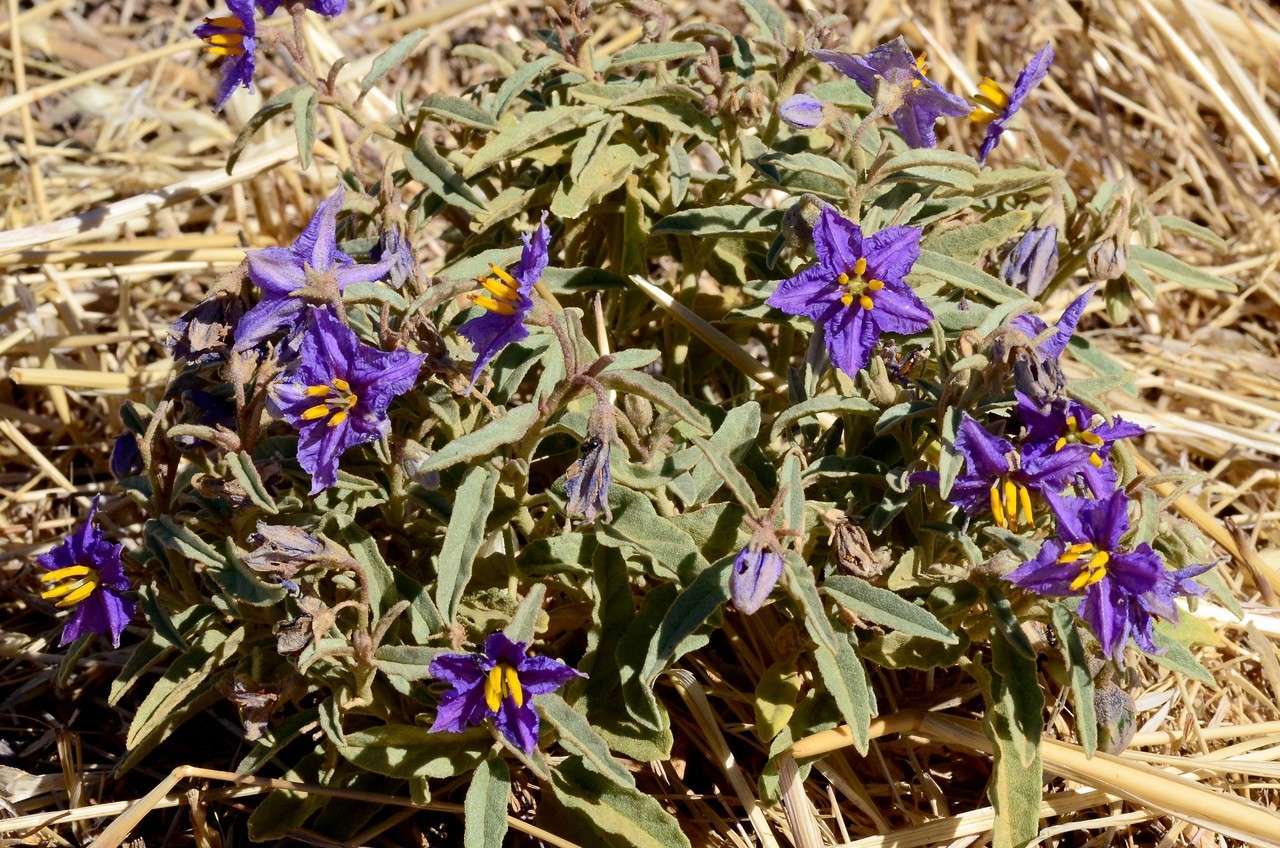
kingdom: Plantae
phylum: Tracheophyta
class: Magnoliopsida
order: Solanales
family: Solanaceae
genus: Solanum
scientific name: Solanum esuriale
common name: Wild tomato
